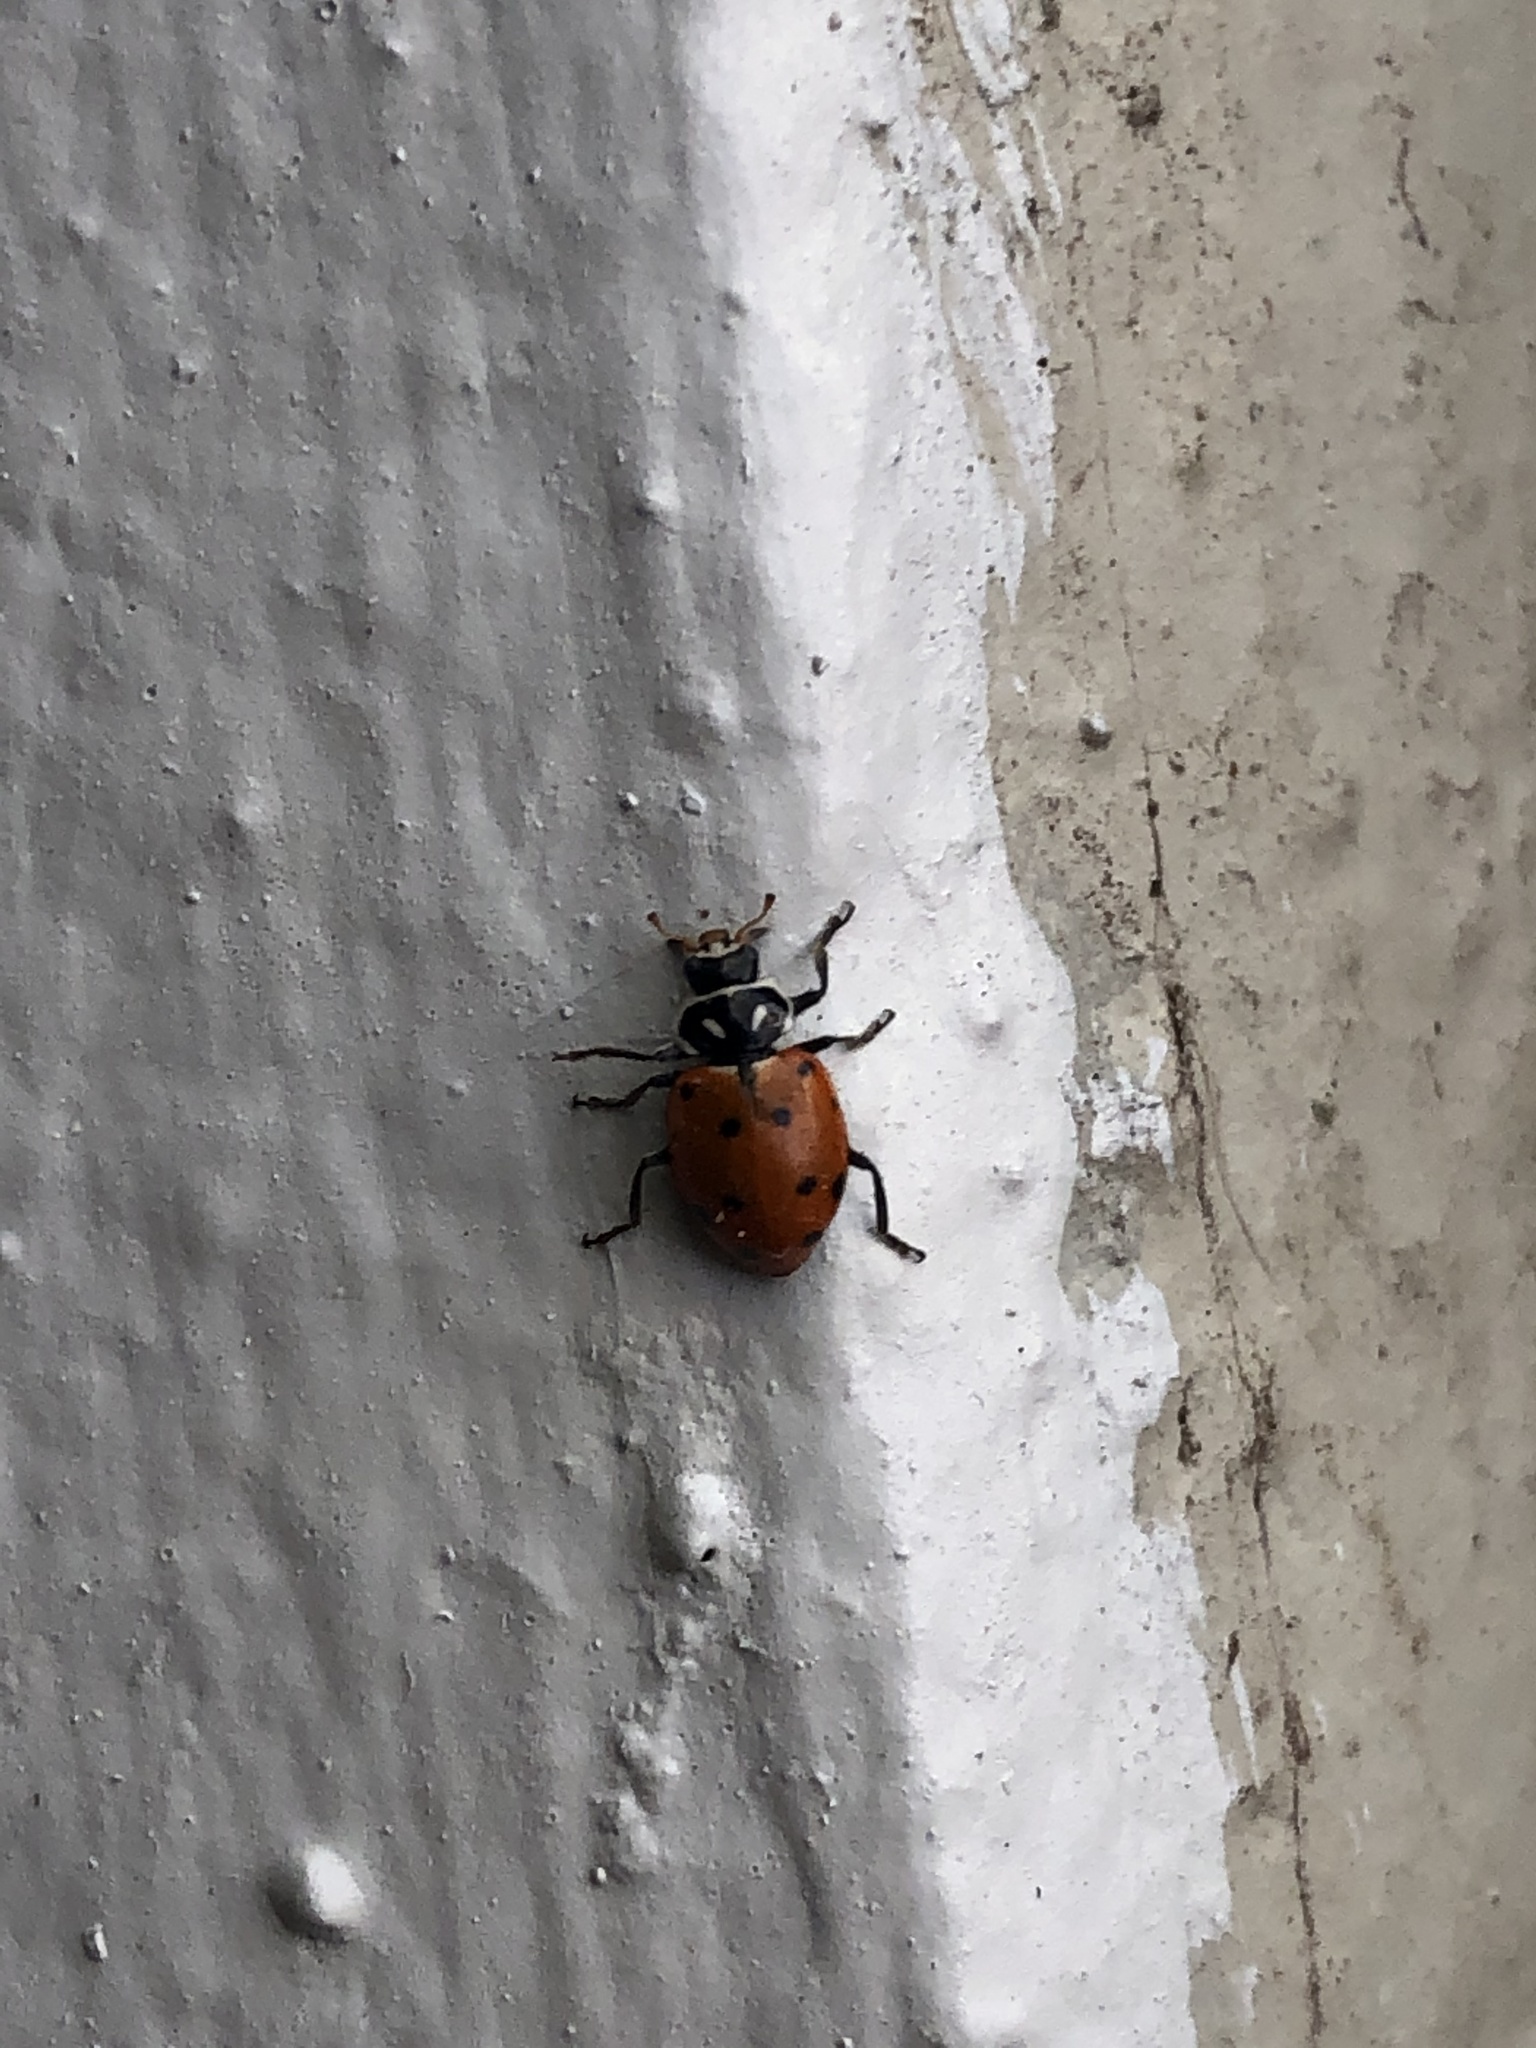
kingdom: Animalia
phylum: Arthropoda
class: Insecta
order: Coleoptera
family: Coccinellidae
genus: Hippodamia
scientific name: Hippodamia convergens
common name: Convergent lady beetle
